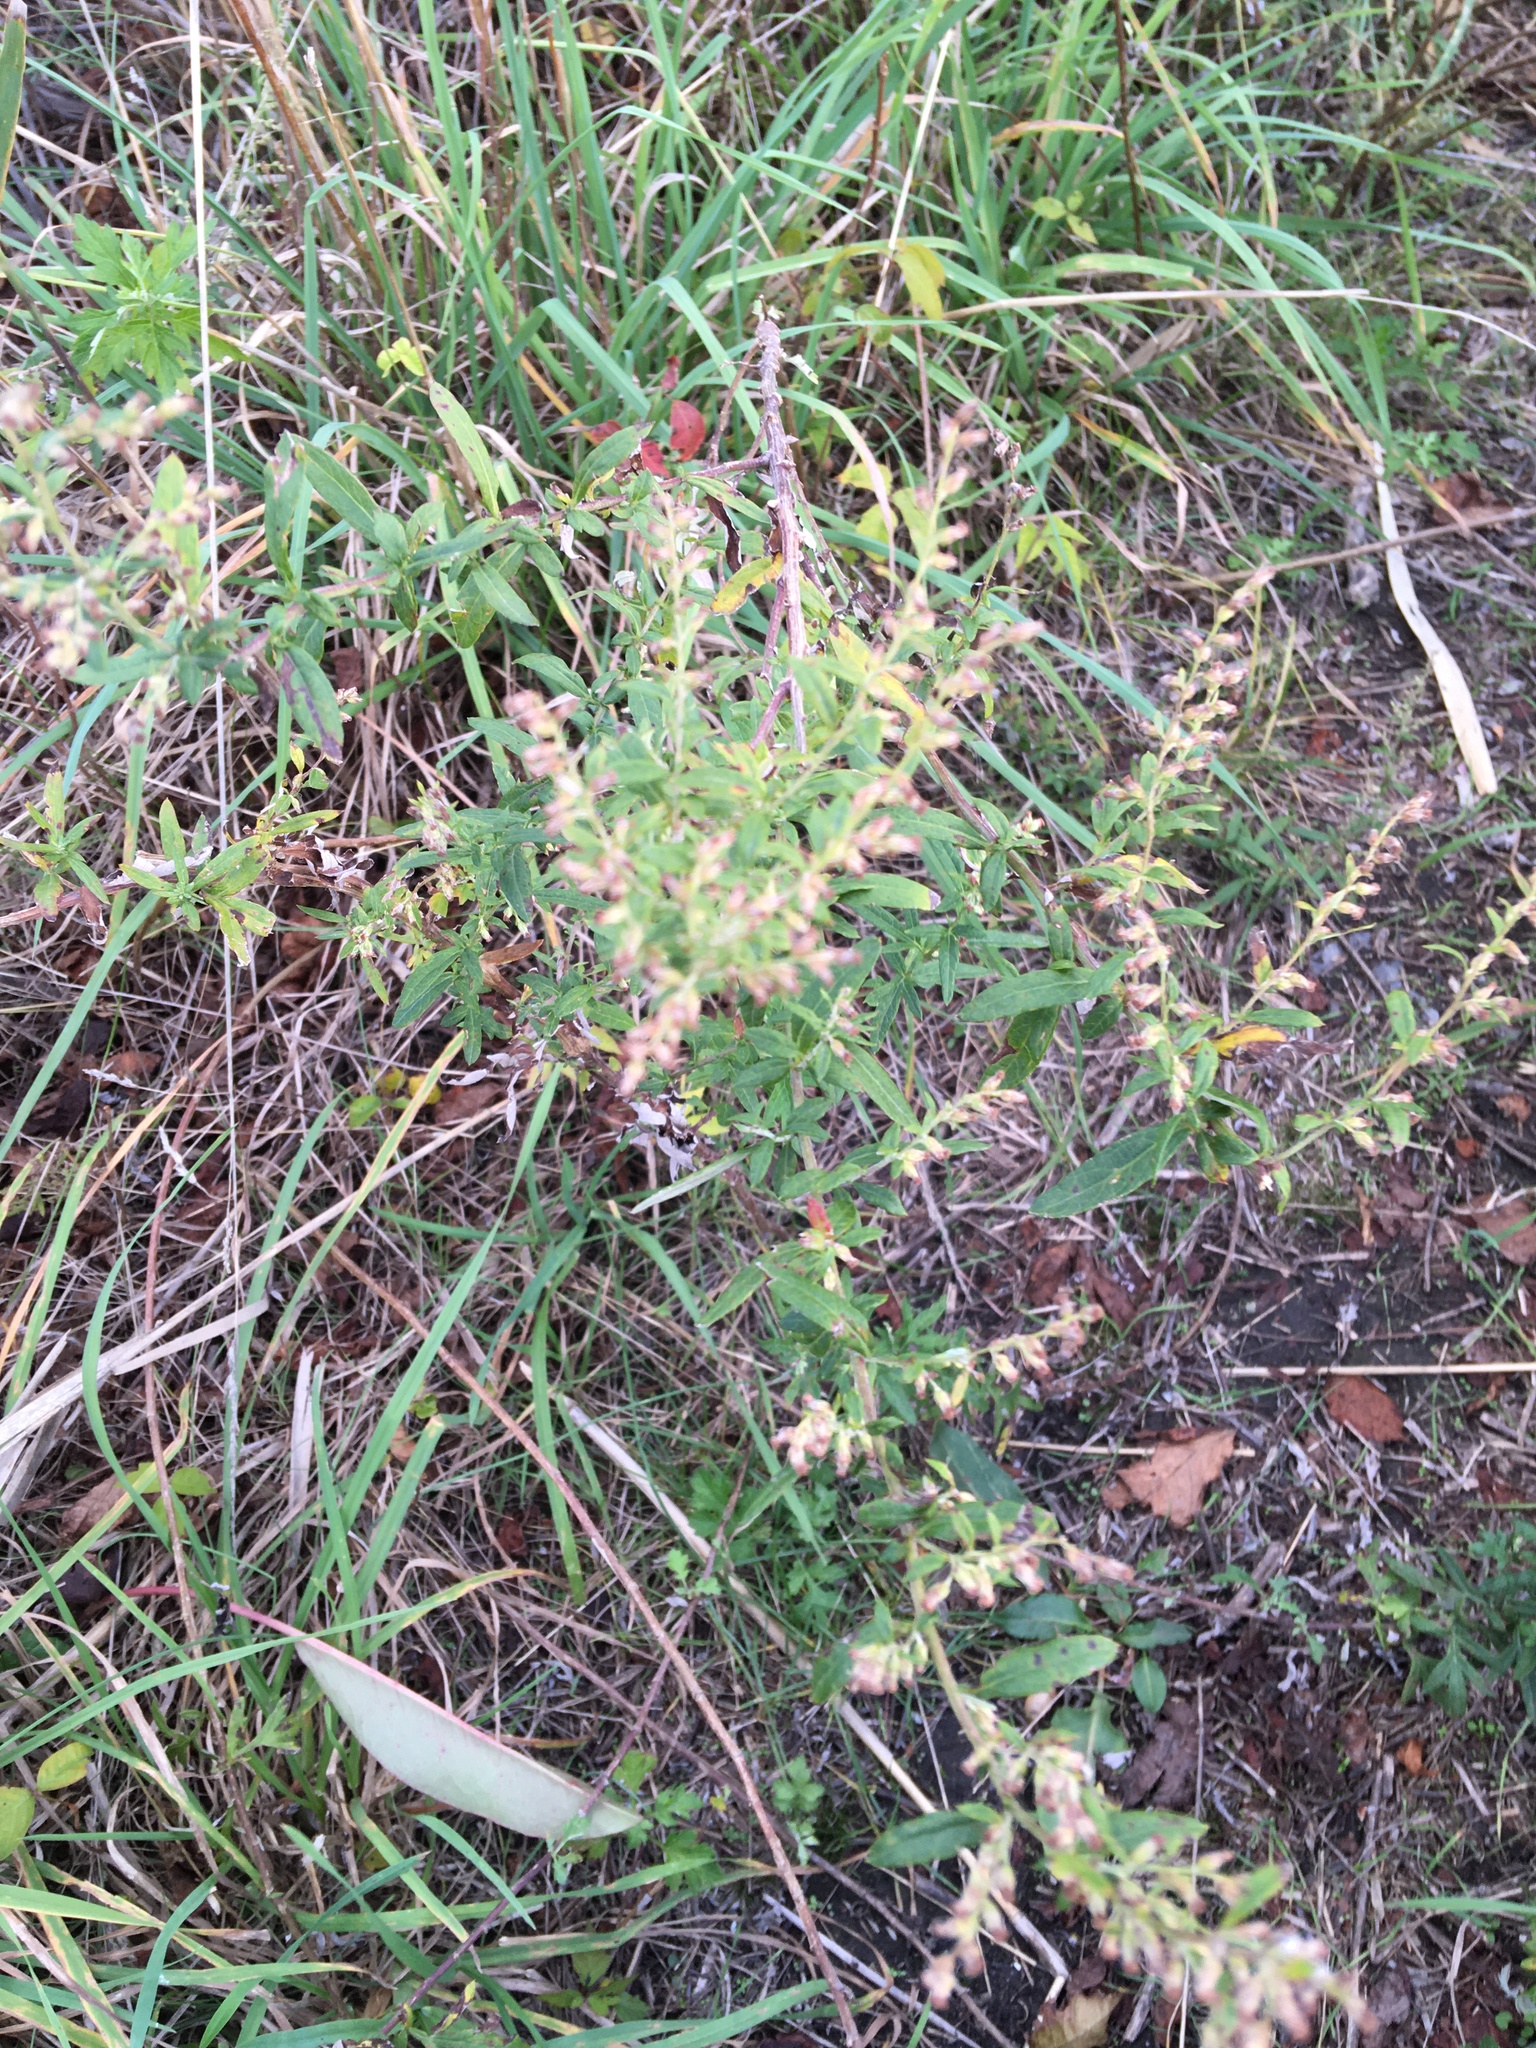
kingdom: Plantae
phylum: Tracheophyta
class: Magnoliopsida
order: Asterales
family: Asteraceae
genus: Artemisia
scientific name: Artemisia vulgaris
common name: Mugwort
